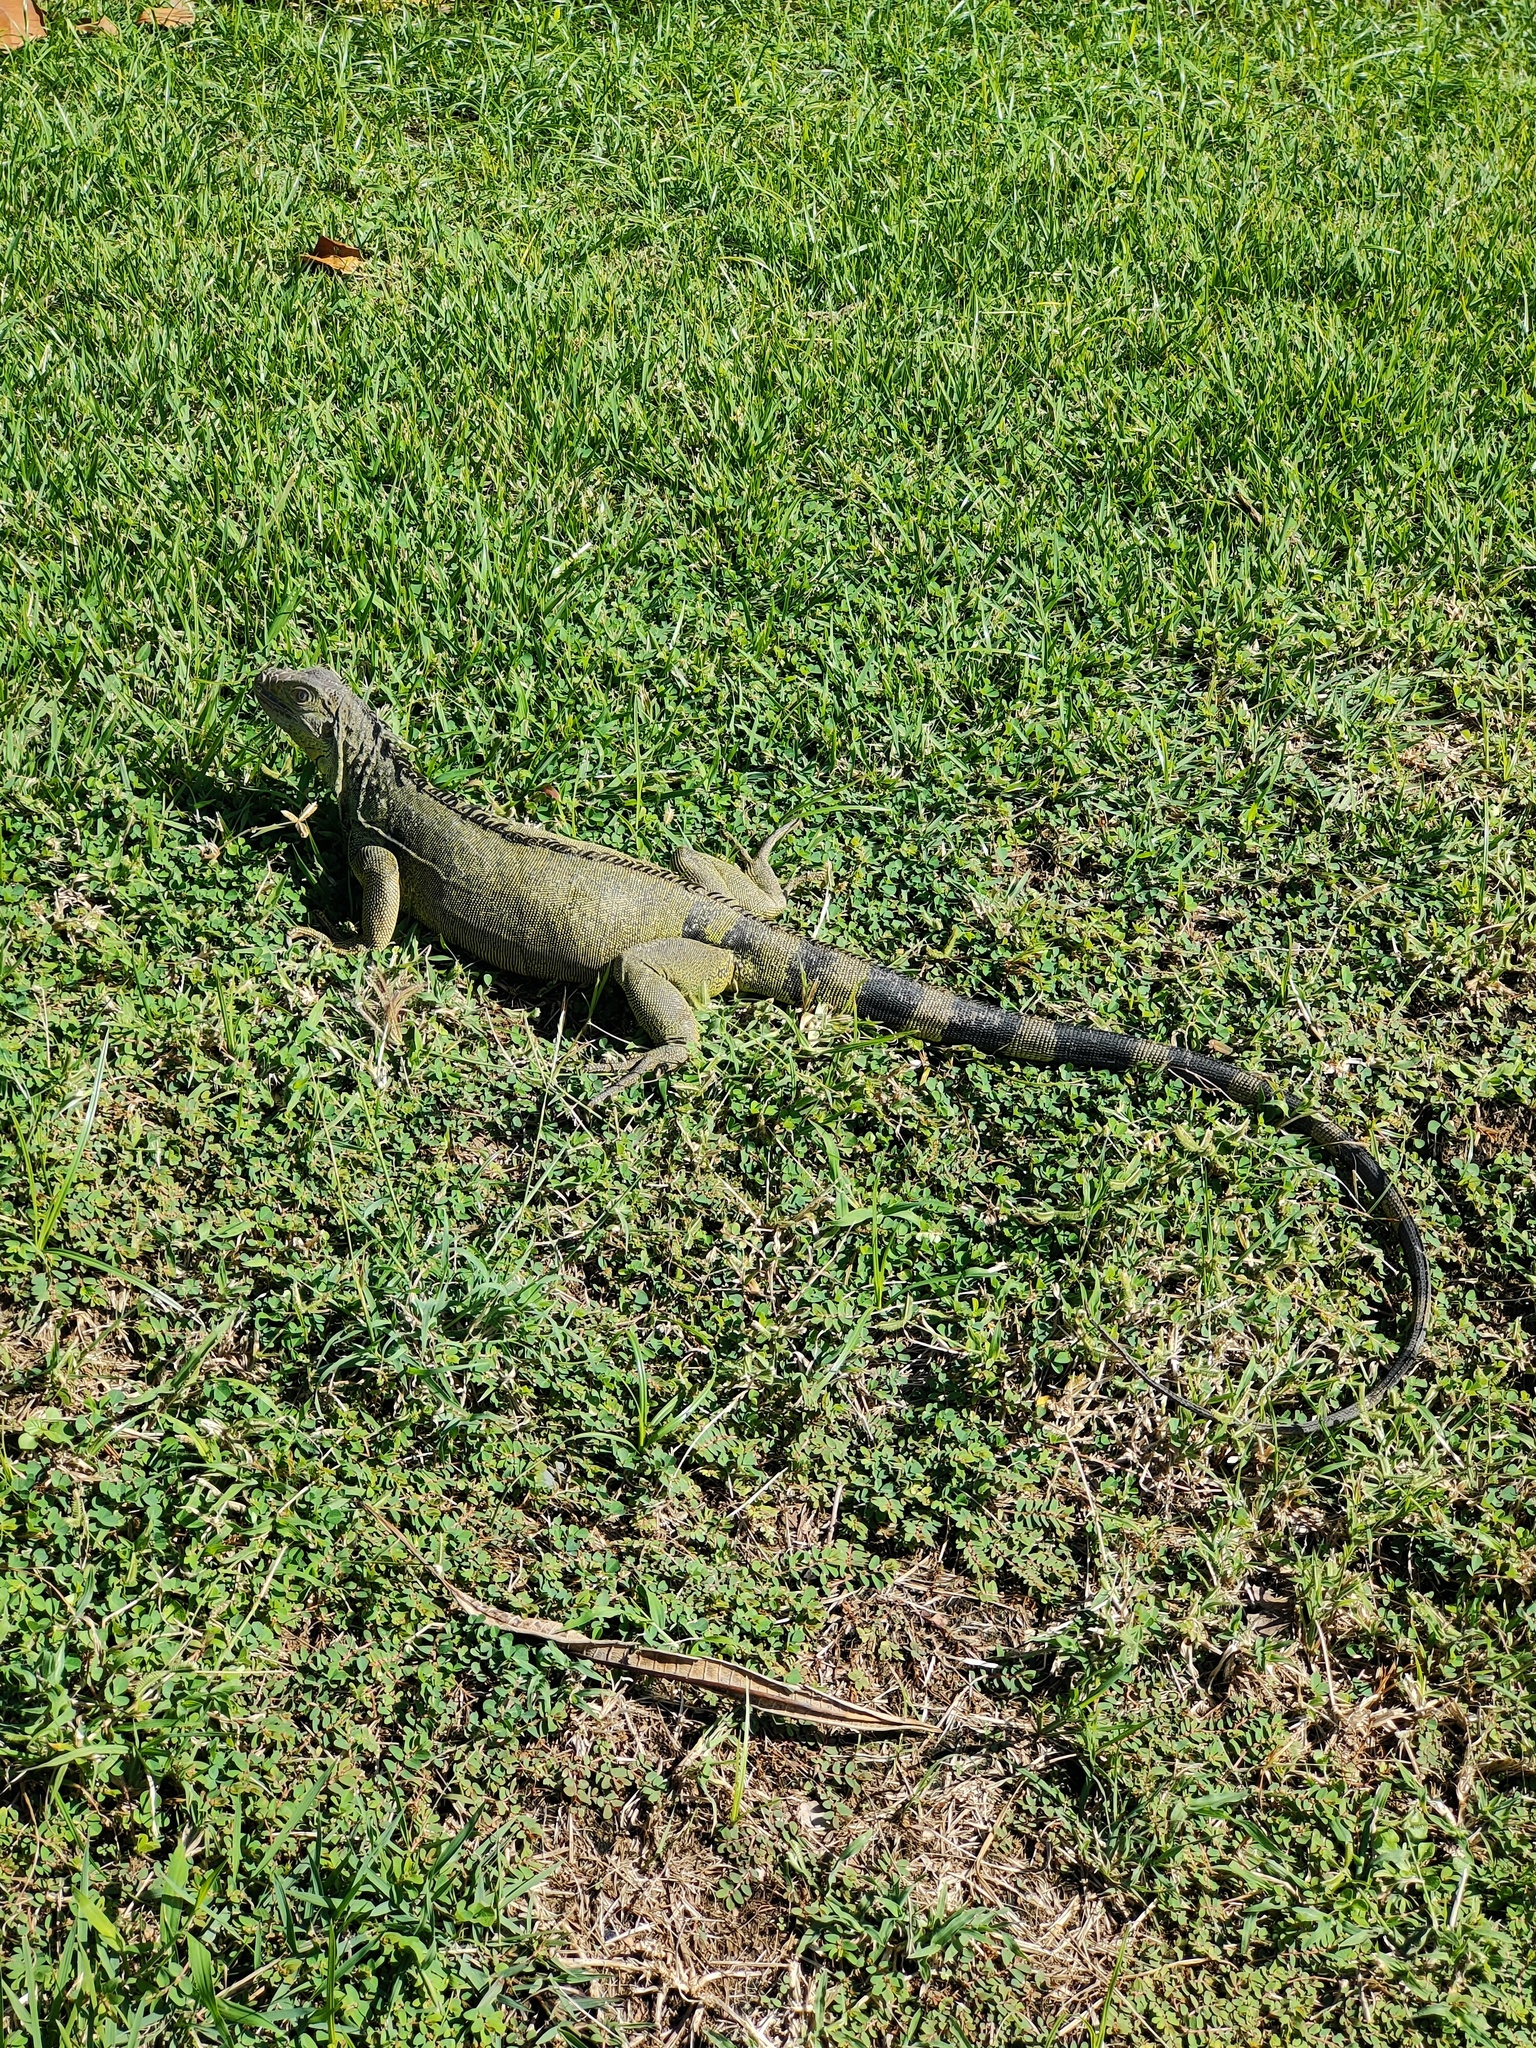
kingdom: Animalia
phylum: Chordata
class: Squamata
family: Iguanidae
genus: Iguana
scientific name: Iguana iguana
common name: Green iguana
